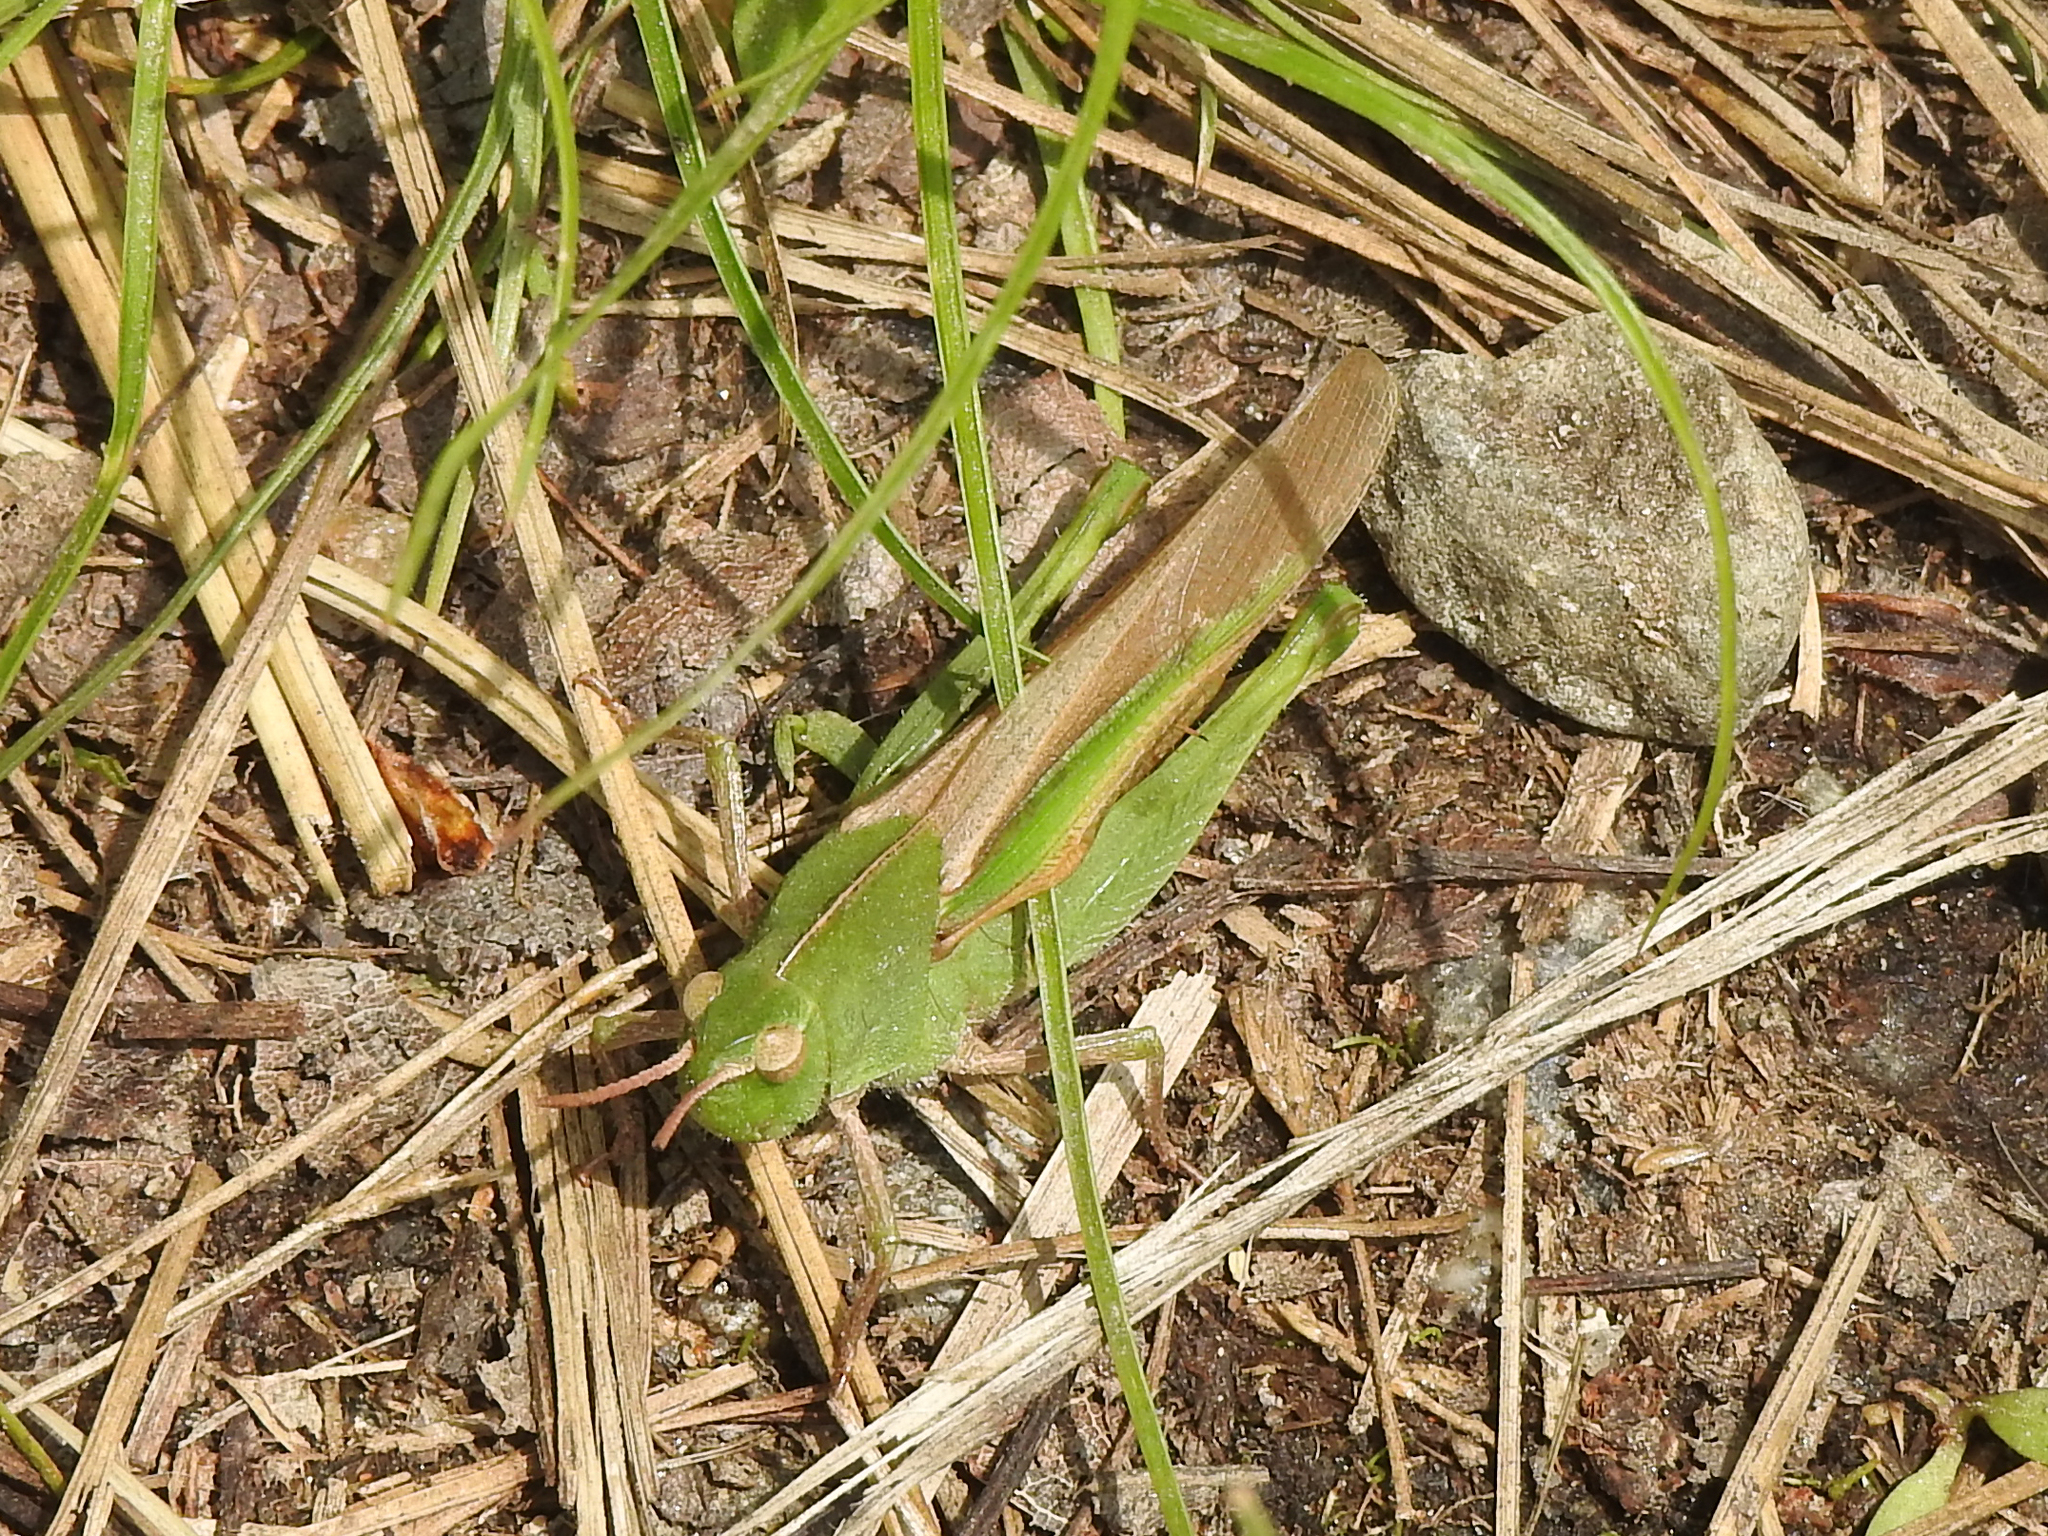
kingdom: Animalia
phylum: Arthropoda
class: Insecta
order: Orthoptera
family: Acrididae
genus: Chortophaga
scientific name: Chortophaga viridifasciata
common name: Green-striped grasshopper
